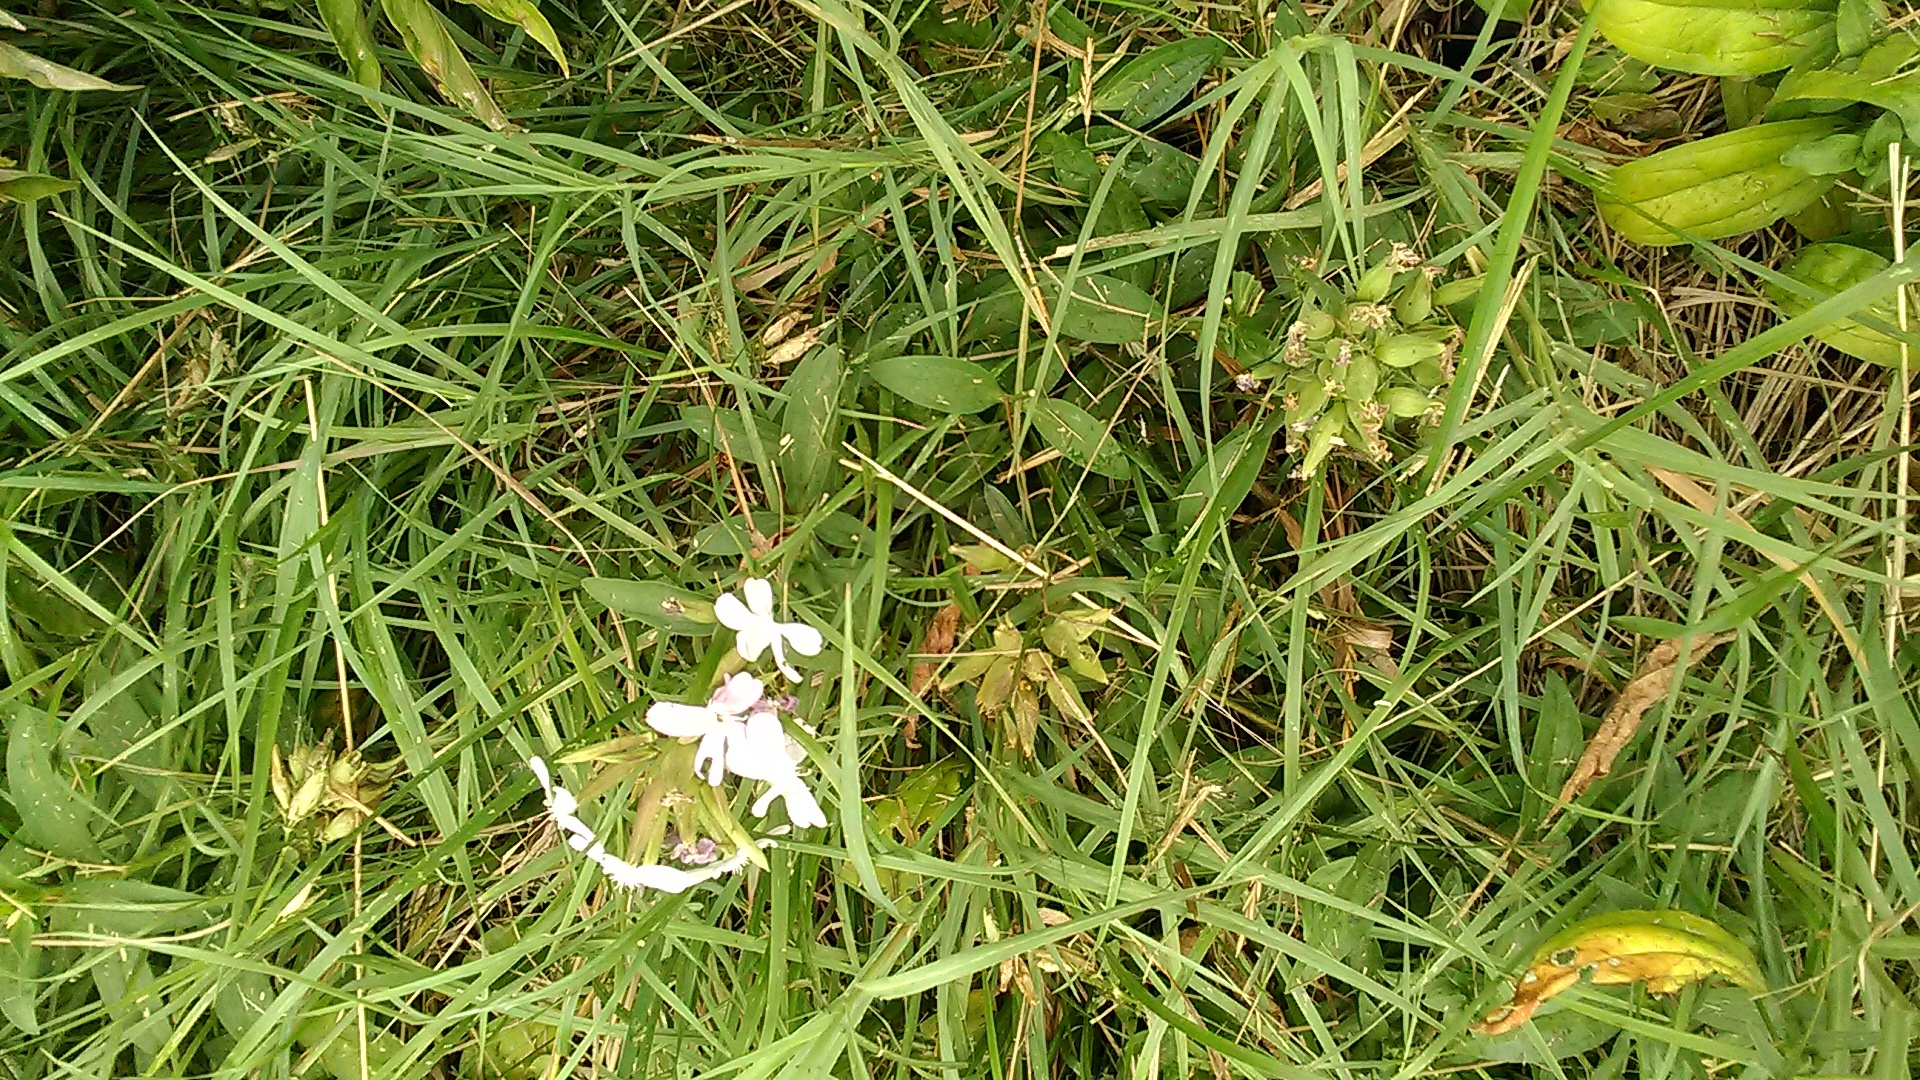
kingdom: Plantae
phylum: Tracheophyta
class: Magnoliopsida
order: Caryophyllales
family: Caryophyllaceae
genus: Saponaria
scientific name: Saponaria officinalis
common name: Soapwort
